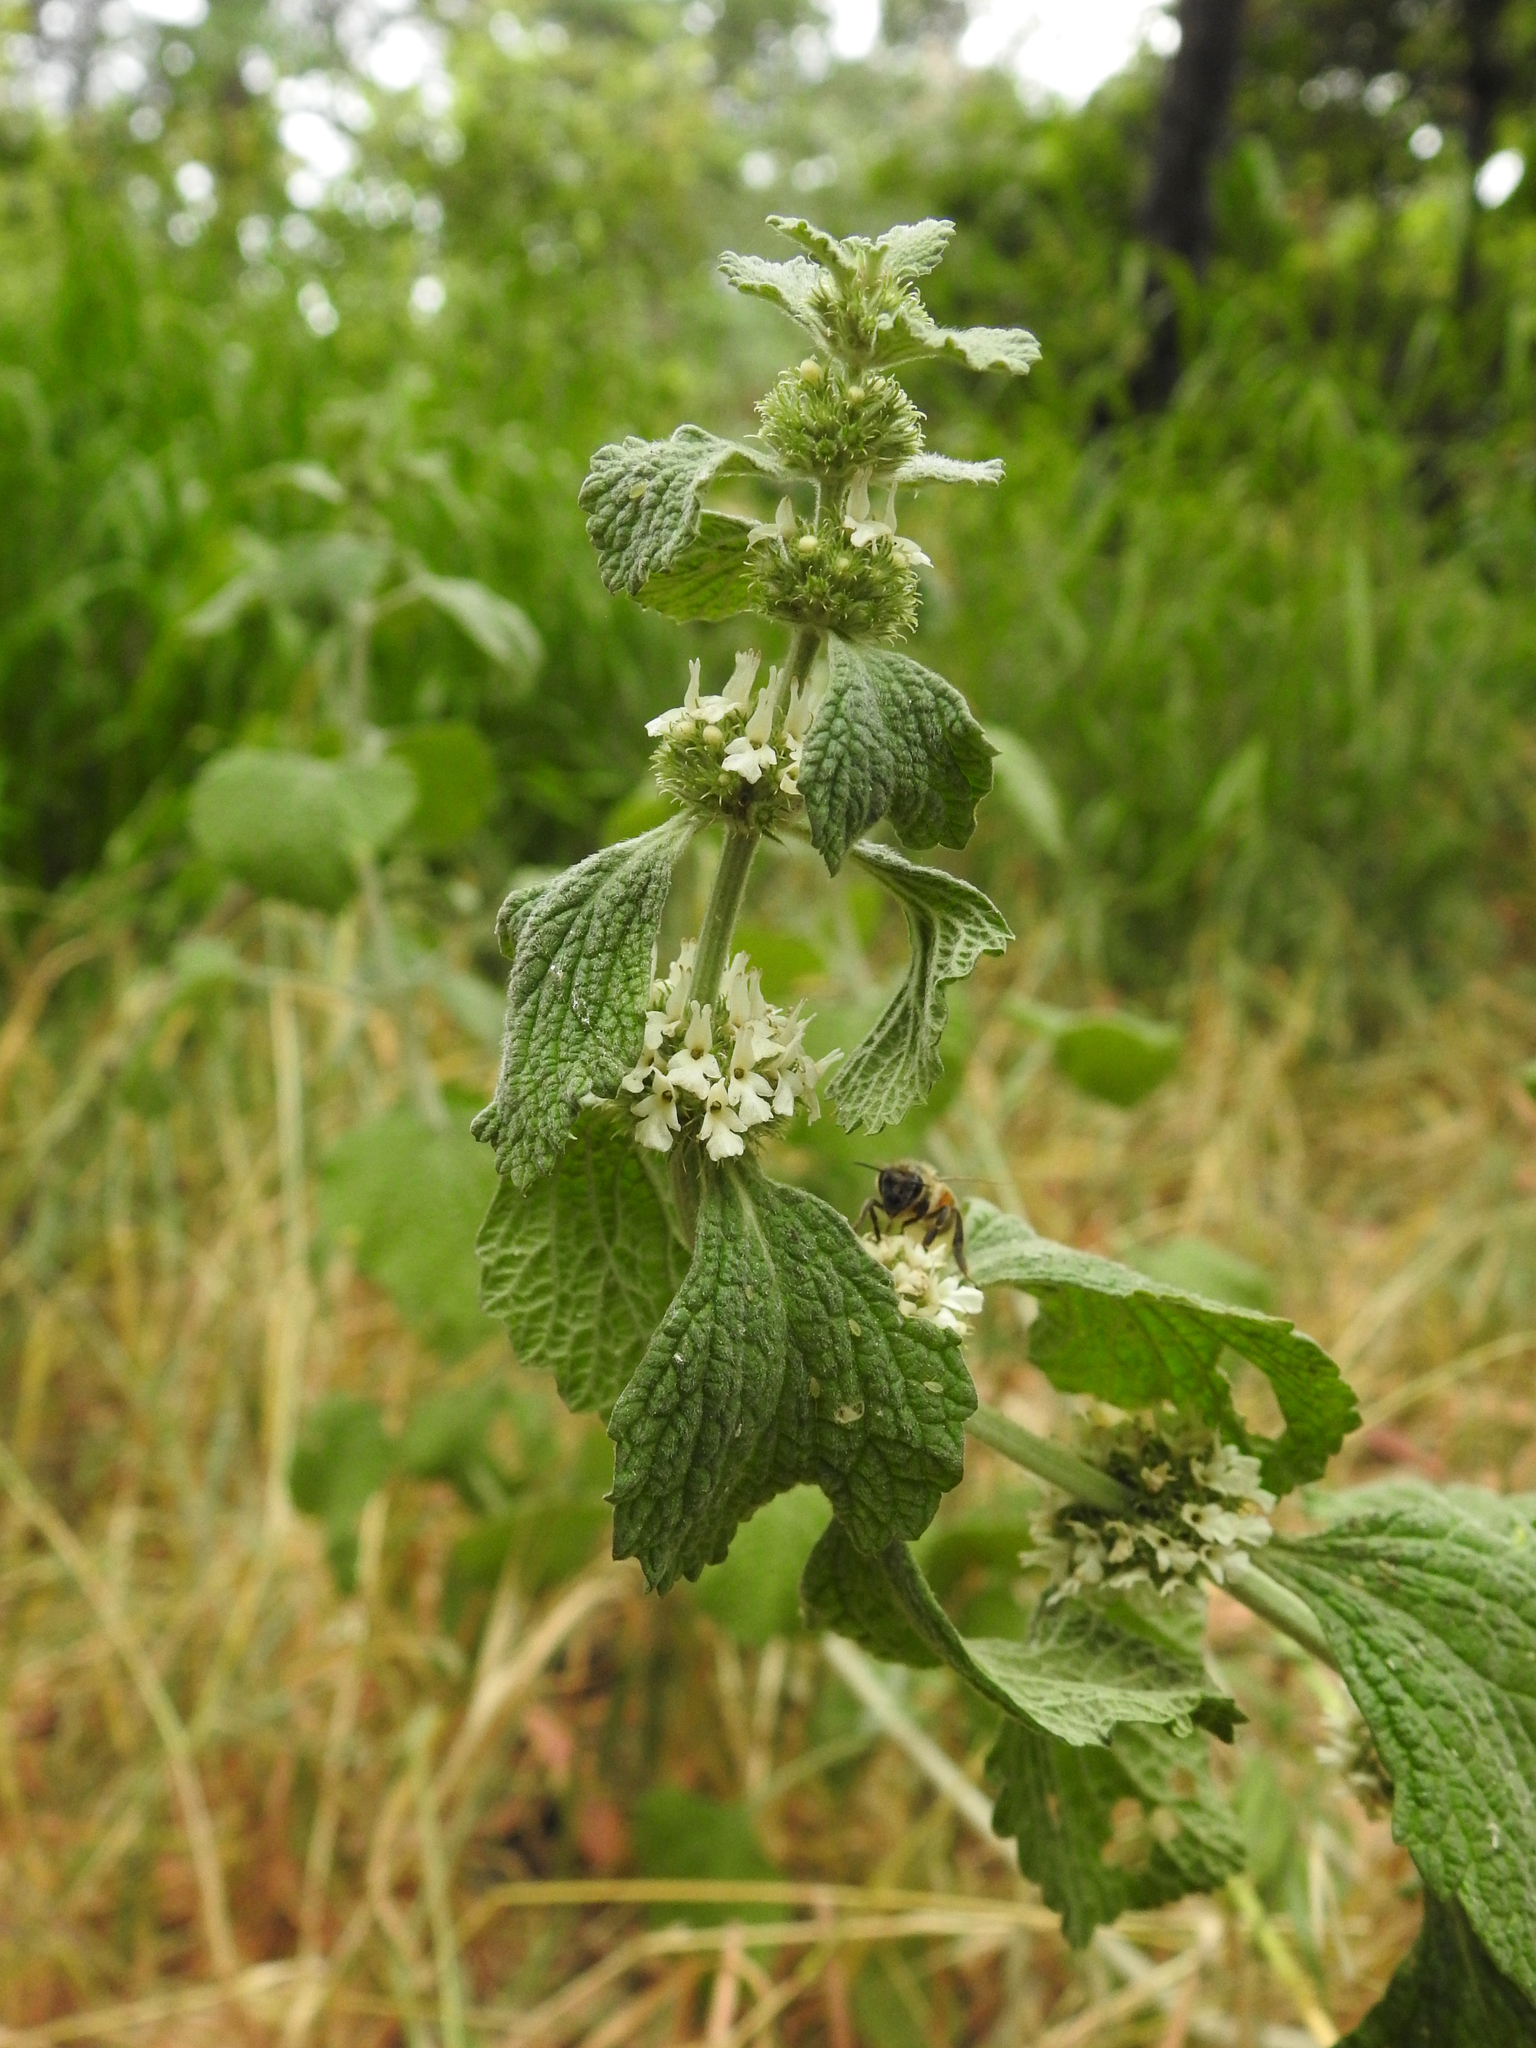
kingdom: Plantae
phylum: Tracheophyta
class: Magnoliopsida
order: Lamiales
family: Lamiaceae
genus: Marrubium
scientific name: Marrubium vulgare
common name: Horehound
